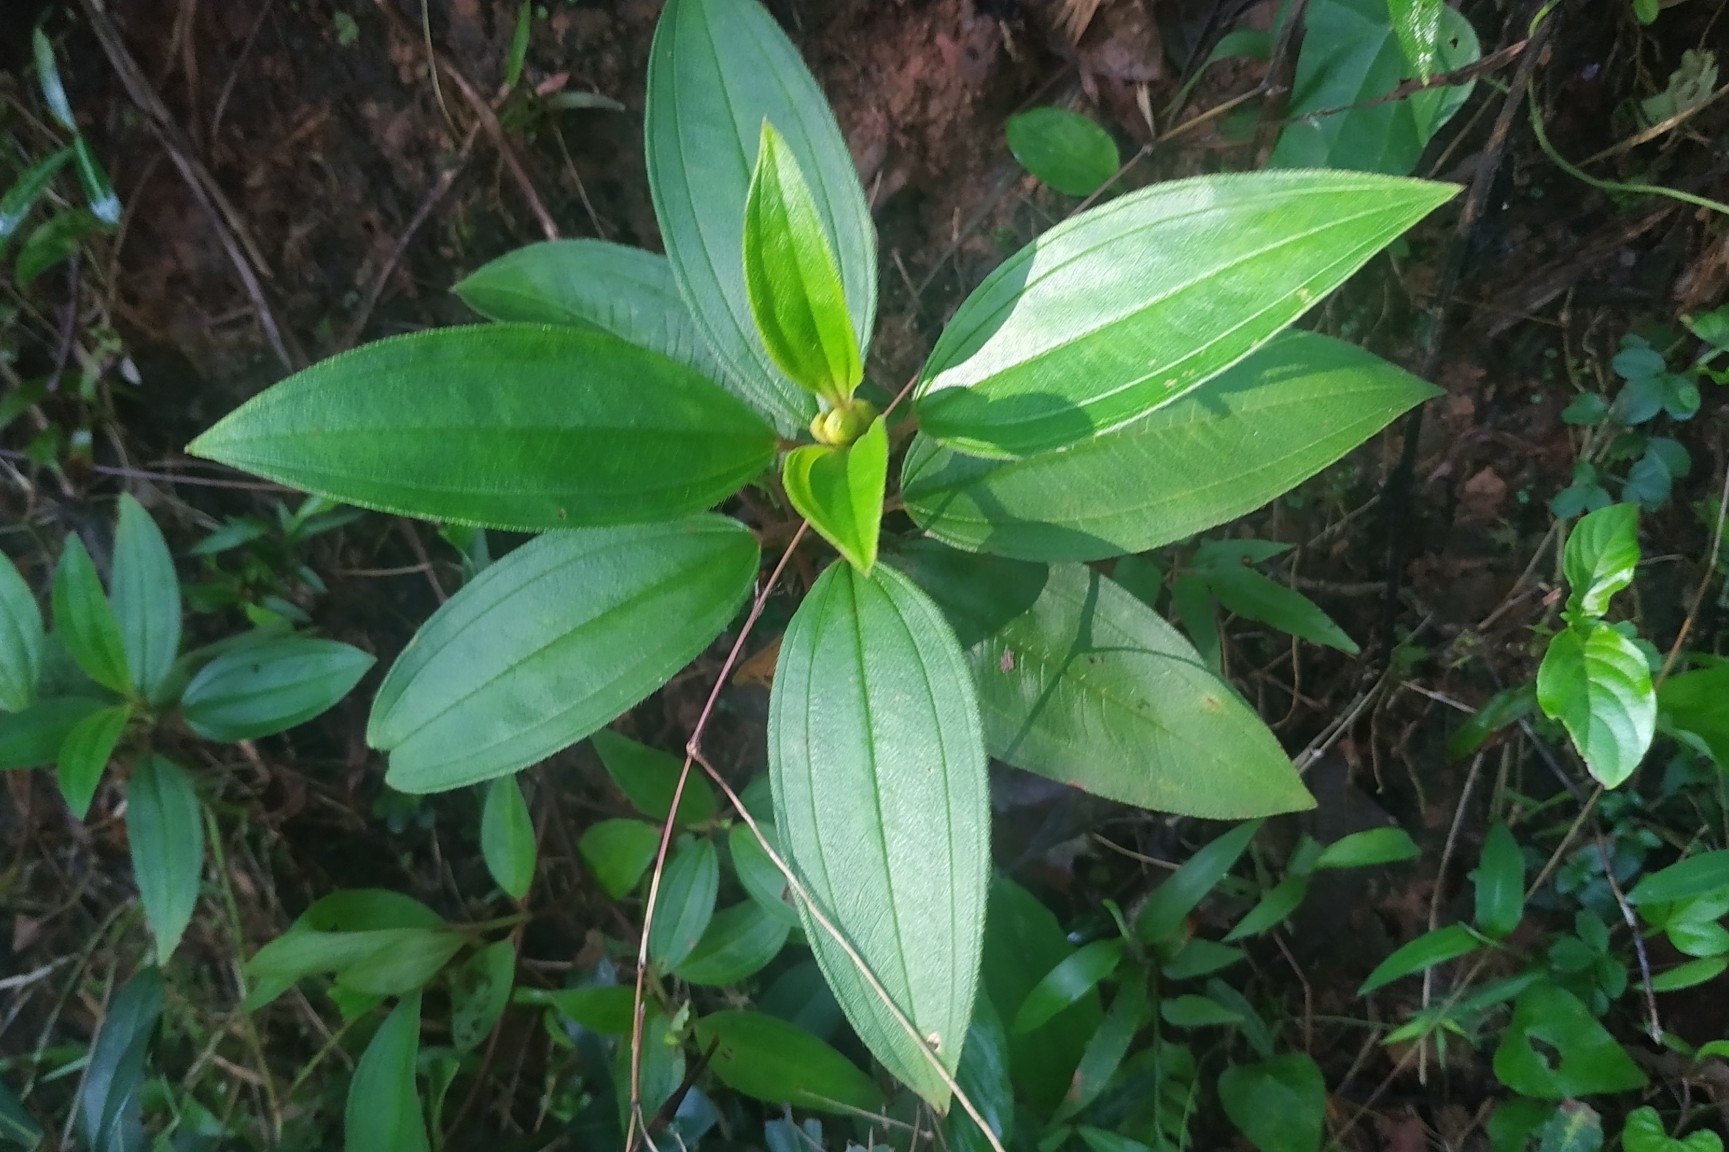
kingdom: Plantae
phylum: Tracheophyta
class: Magnoliopsida
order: Myrtales
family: Melastomataceae
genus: Melastoma
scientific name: Melastoma malabathricum
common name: Indian-rhododendron
